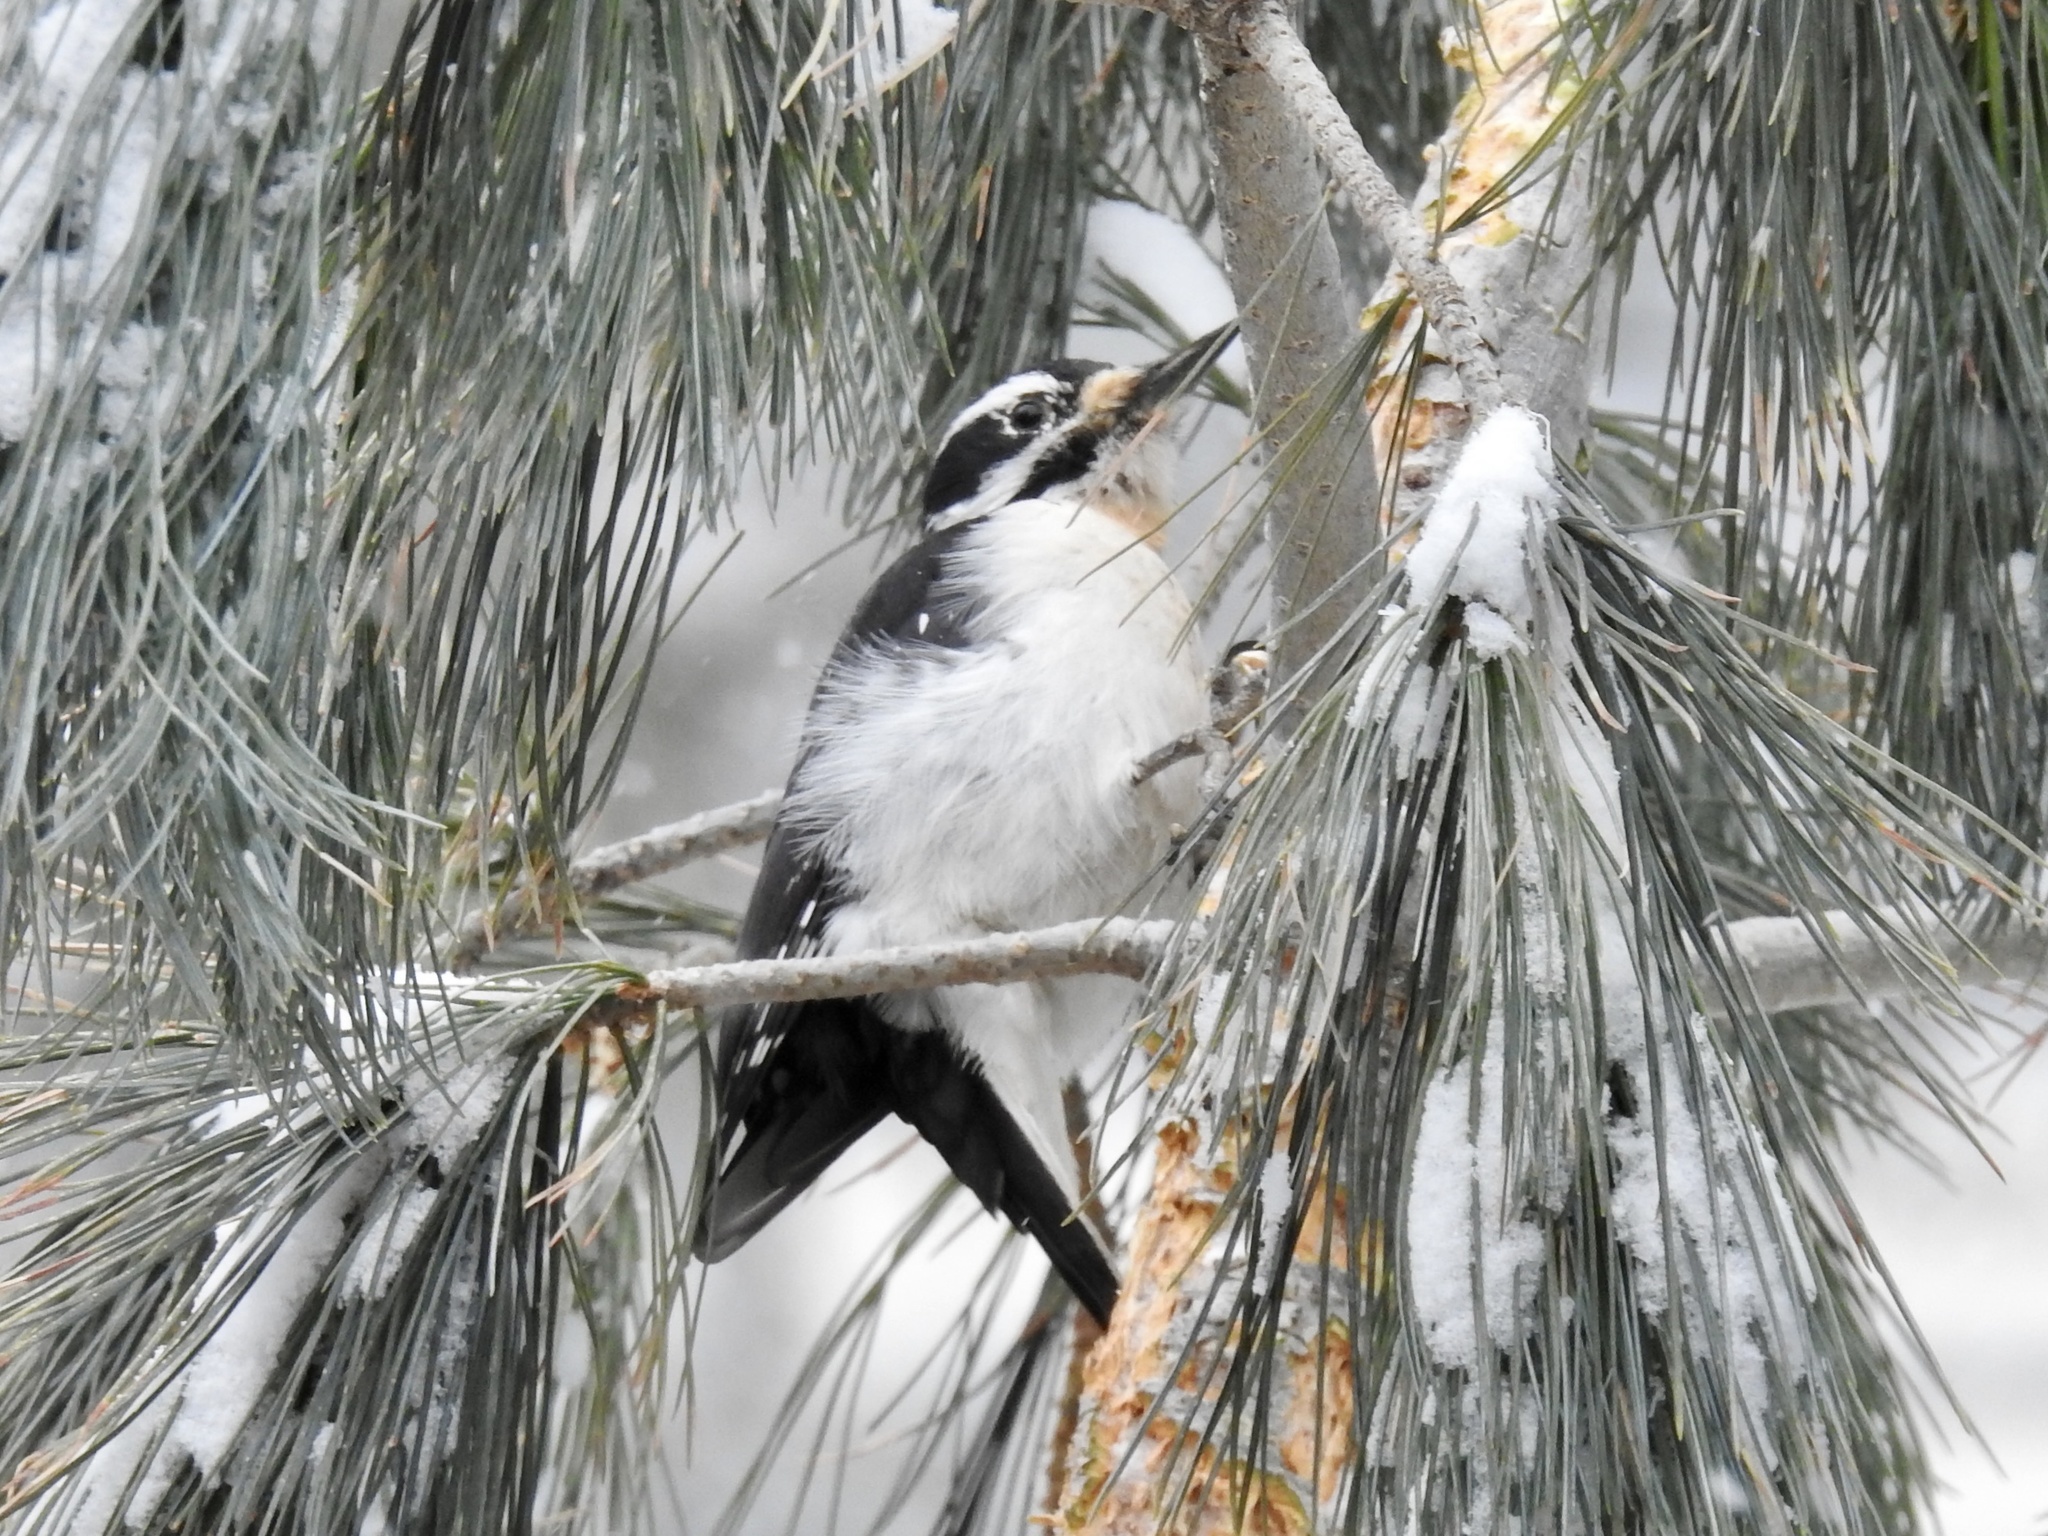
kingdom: Animalia
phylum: Chordata
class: Aves
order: Piciformes
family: Picidae
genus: Leuconotopicus
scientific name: Leuconotopicus villosus
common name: Hairy woodpecker
